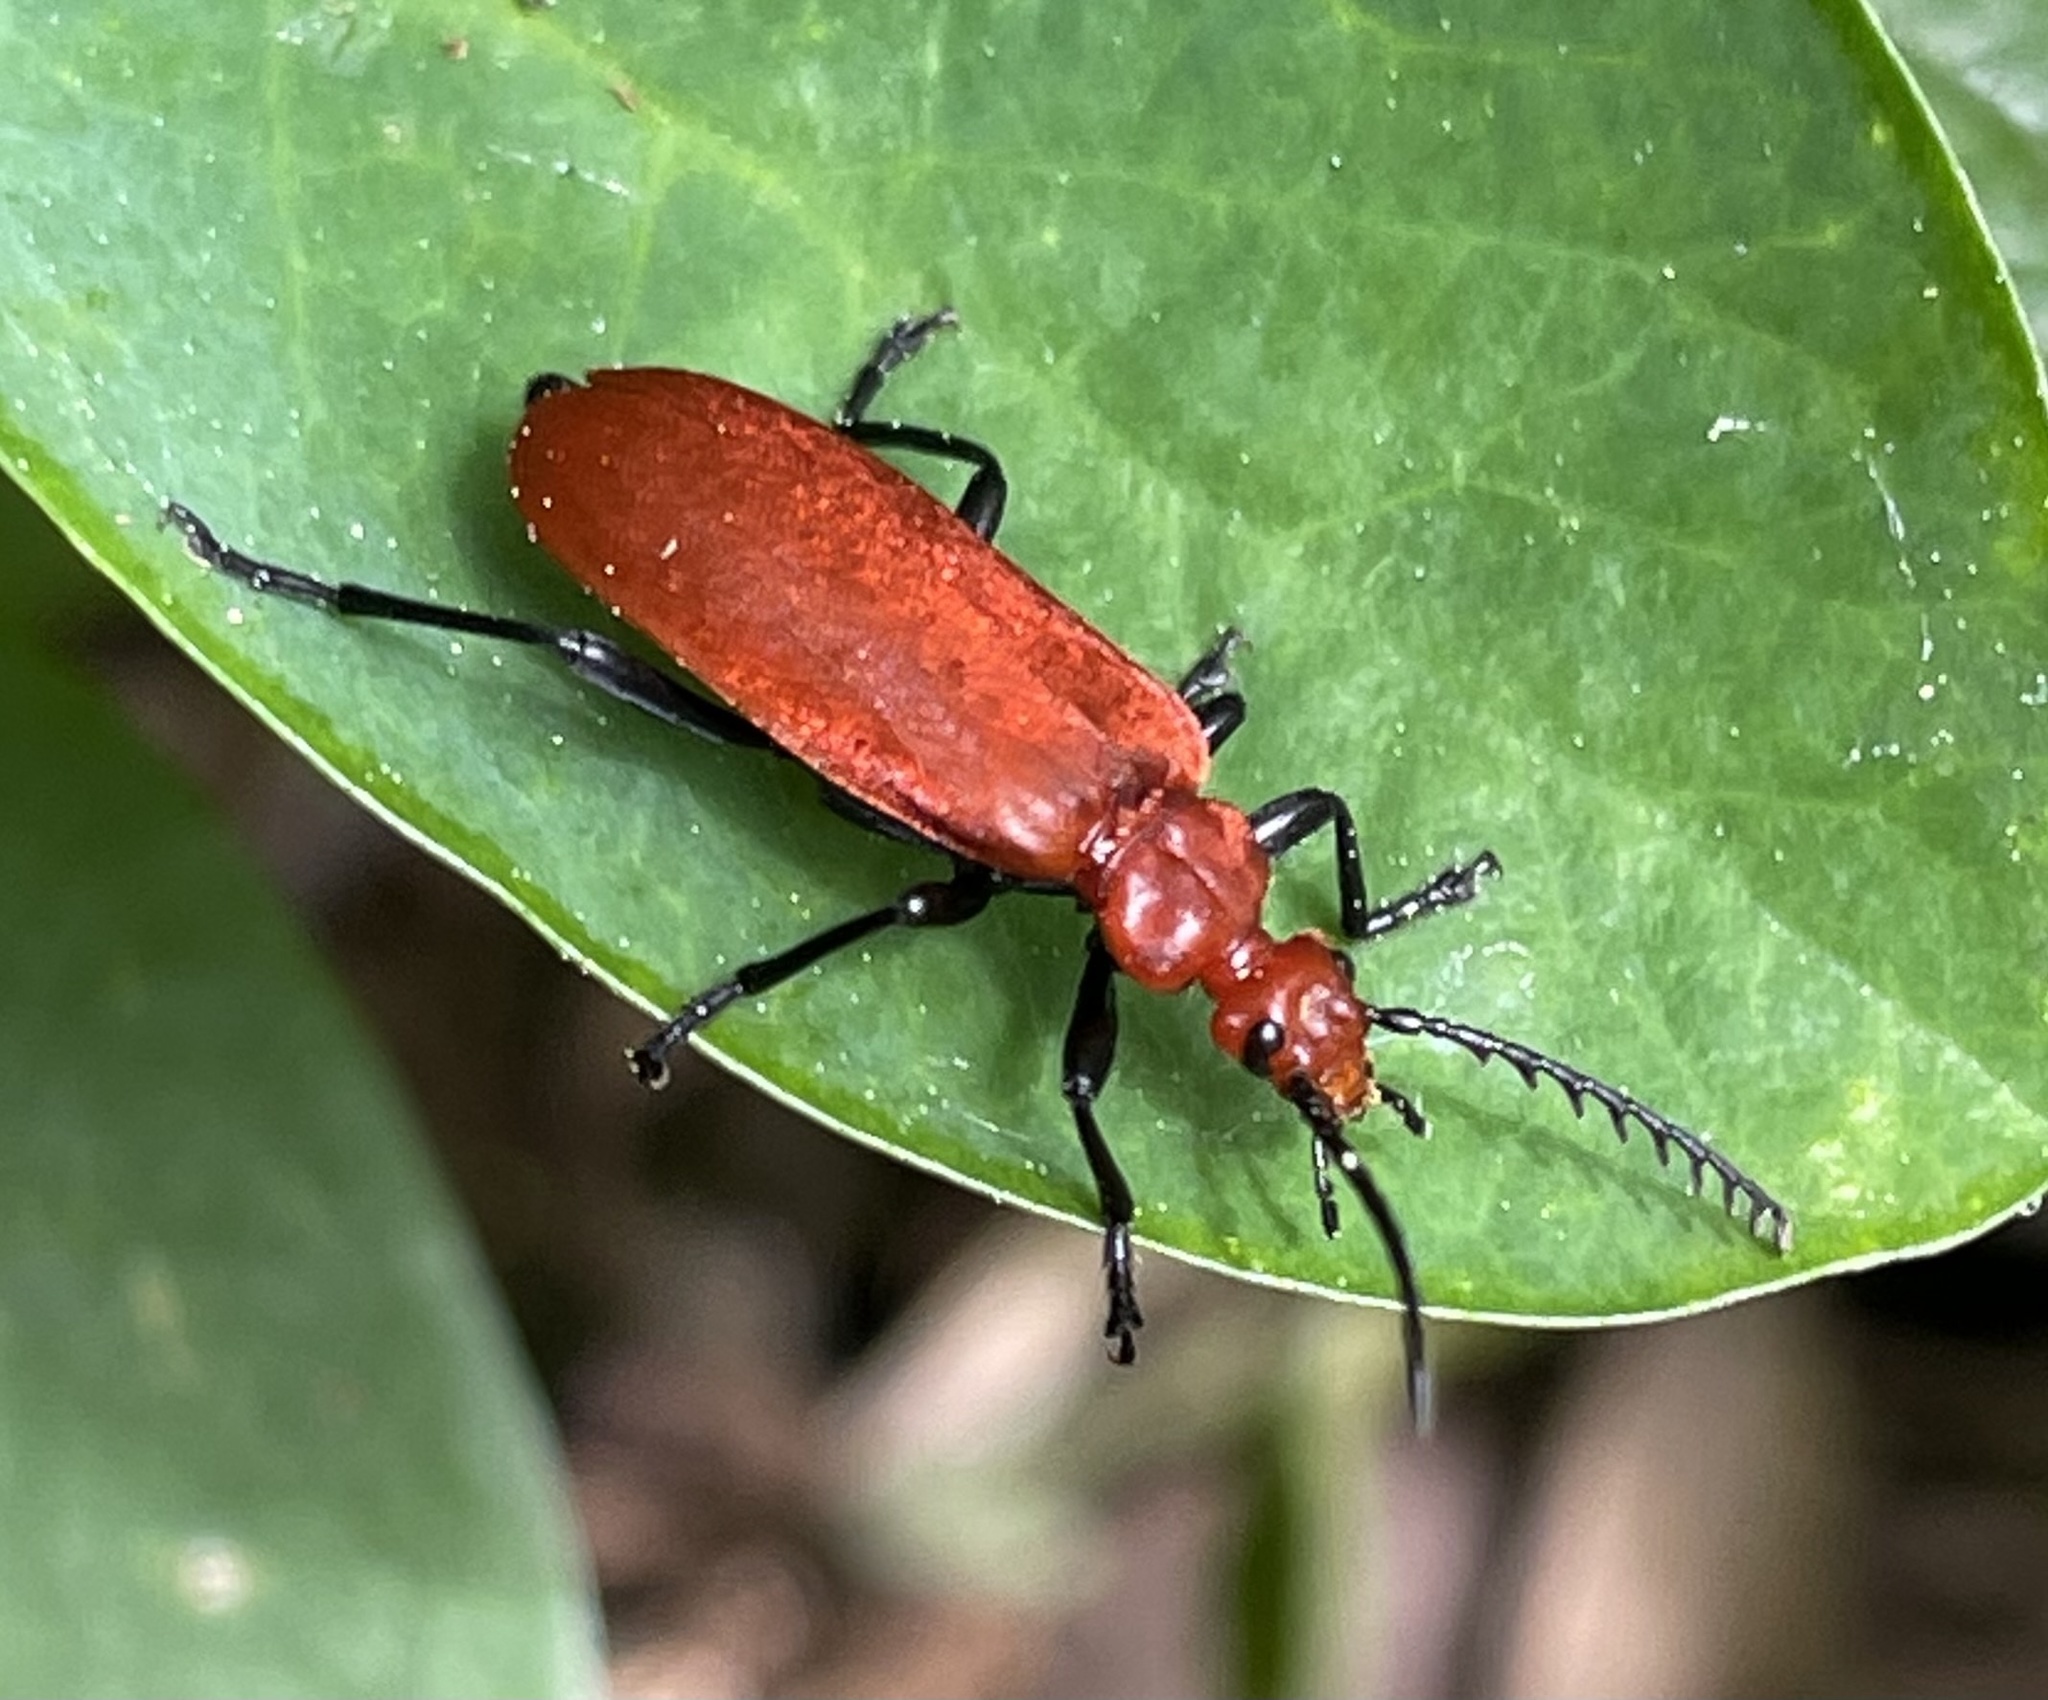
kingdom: Animalia
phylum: Arthropoda
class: Insecta
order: Coleoptera
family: Pyrochroidae
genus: Pyrochroa
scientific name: Pyrochroa serraticornis
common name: Red-headed cardinal beetle
